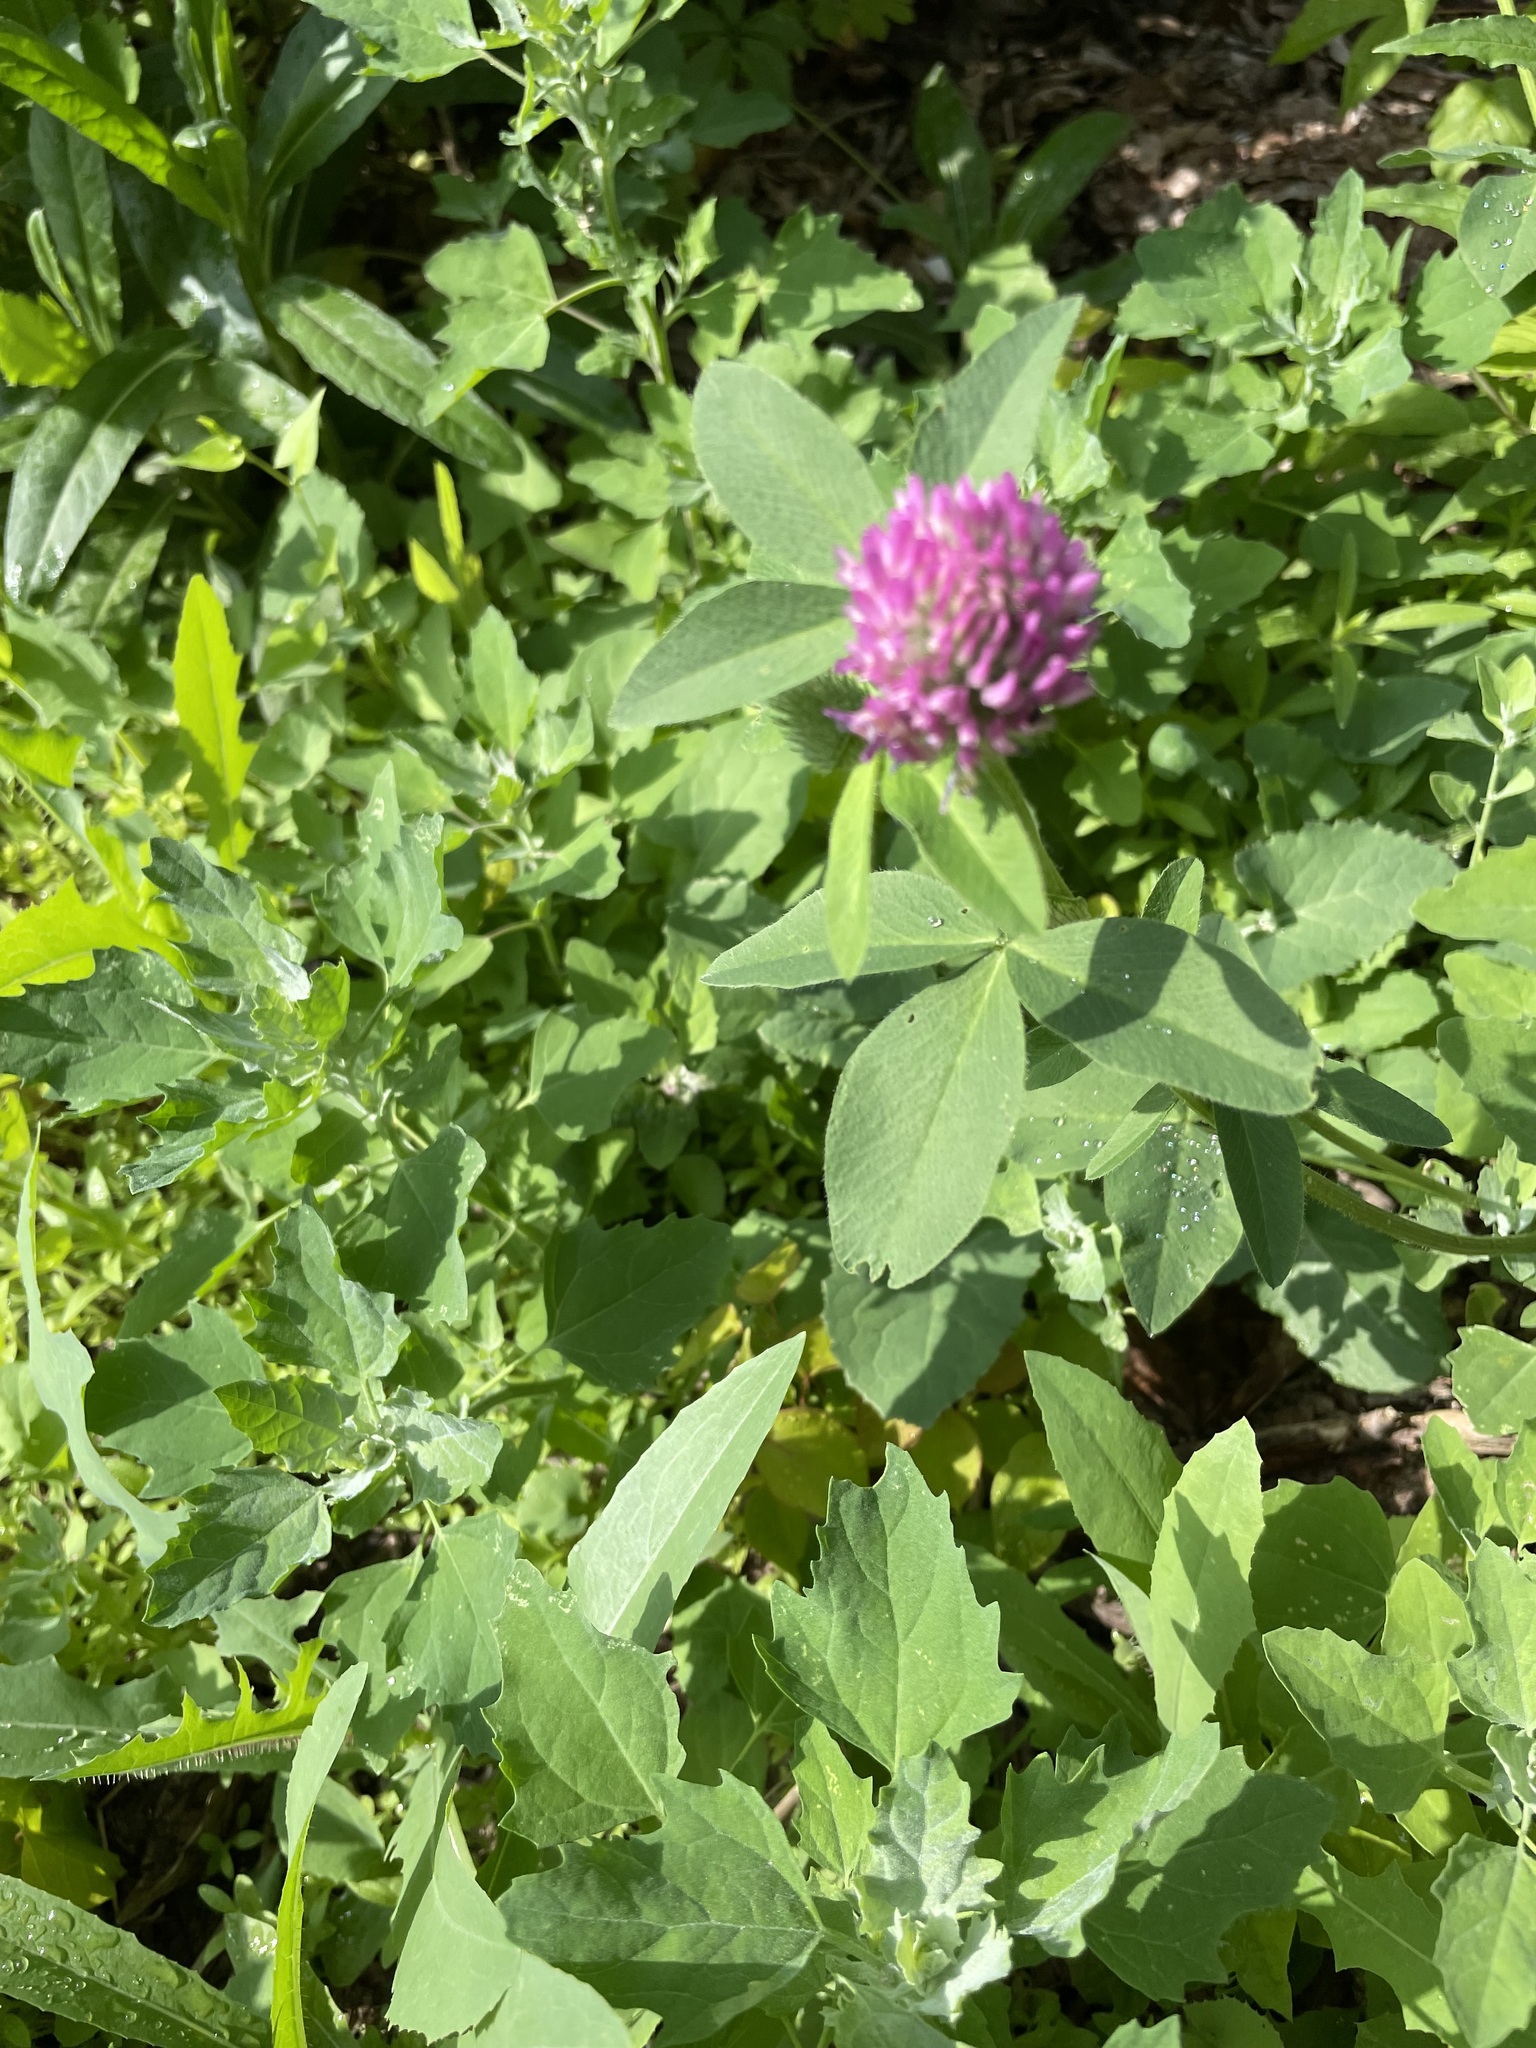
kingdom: Plantae
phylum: Tracheophyta
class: Magnoliopsida
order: Fabales
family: Fabaceae
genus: Trifolium
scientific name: Trifolium pratense
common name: Red clover
